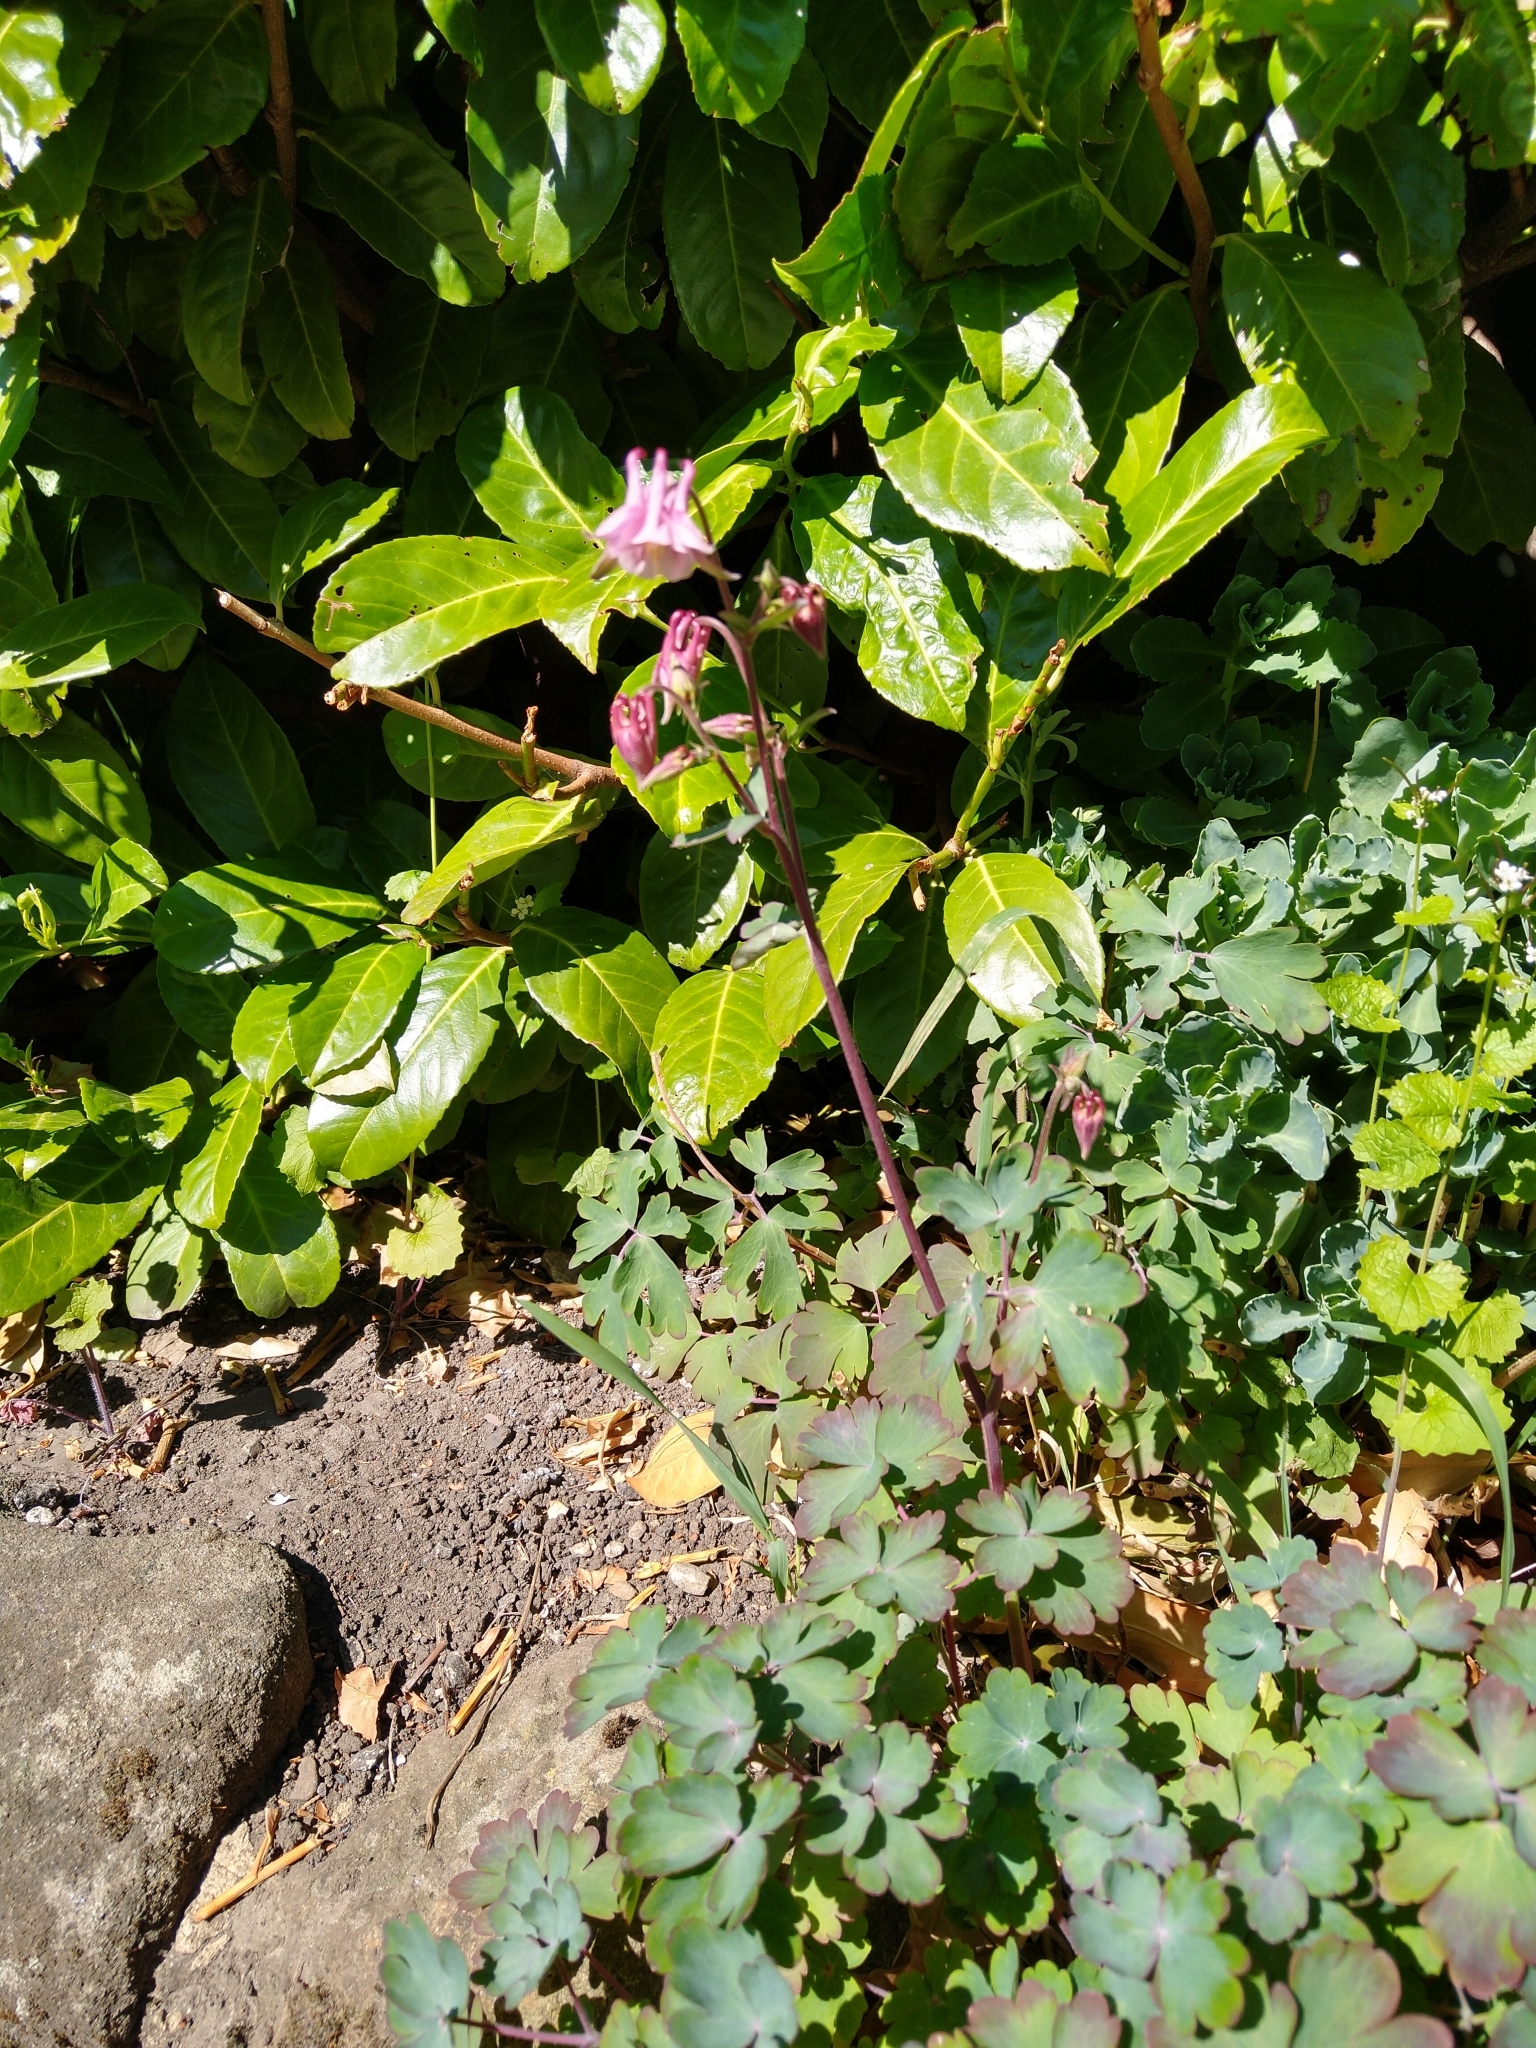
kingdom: Plantae
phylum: Tracheophyta
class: Magnoliopsida
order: Ranunculales
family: Ranunculaceae
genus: Aquilegia
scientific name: Aquilegia vulgaris
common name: Columbine
